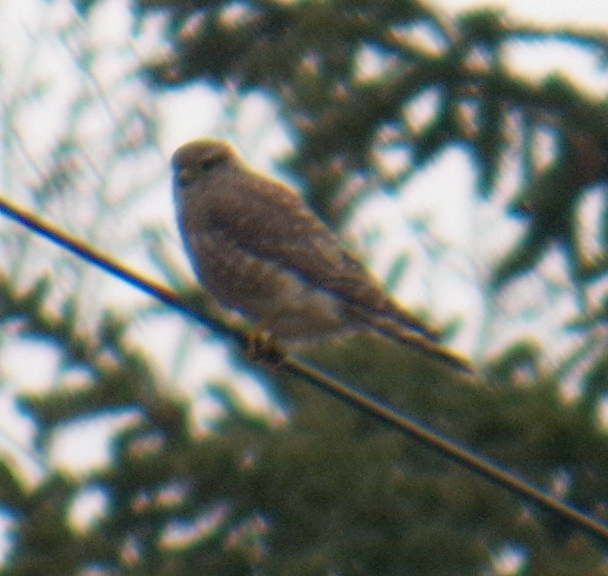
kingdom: Animalia
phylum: Chordata
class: Aves
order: Falconiformes
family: Falconidae
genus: Falco
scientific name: Falco columbarius
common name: Merlin
